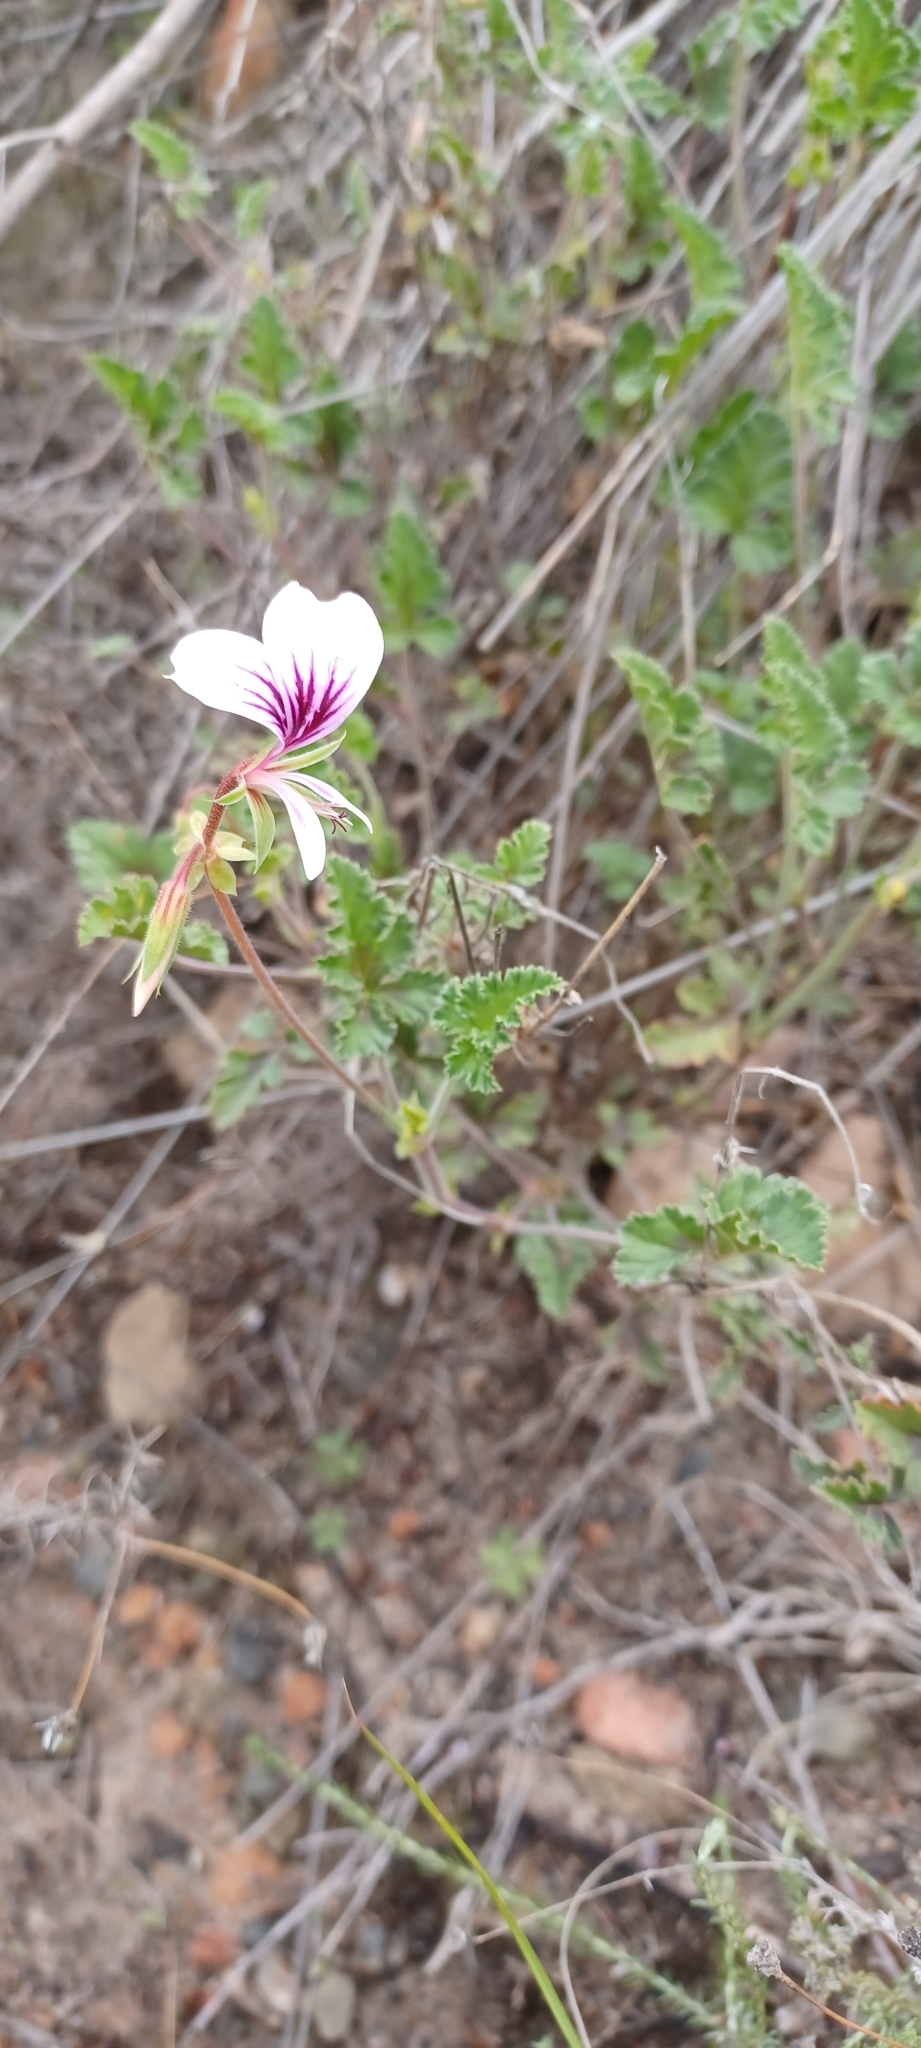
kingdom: Plantae
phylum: Tracheophyta
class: Magnoliopsida
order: Geraniales
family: Geraniaceae
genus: Pelargonium
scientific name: Pelargonium candicans
